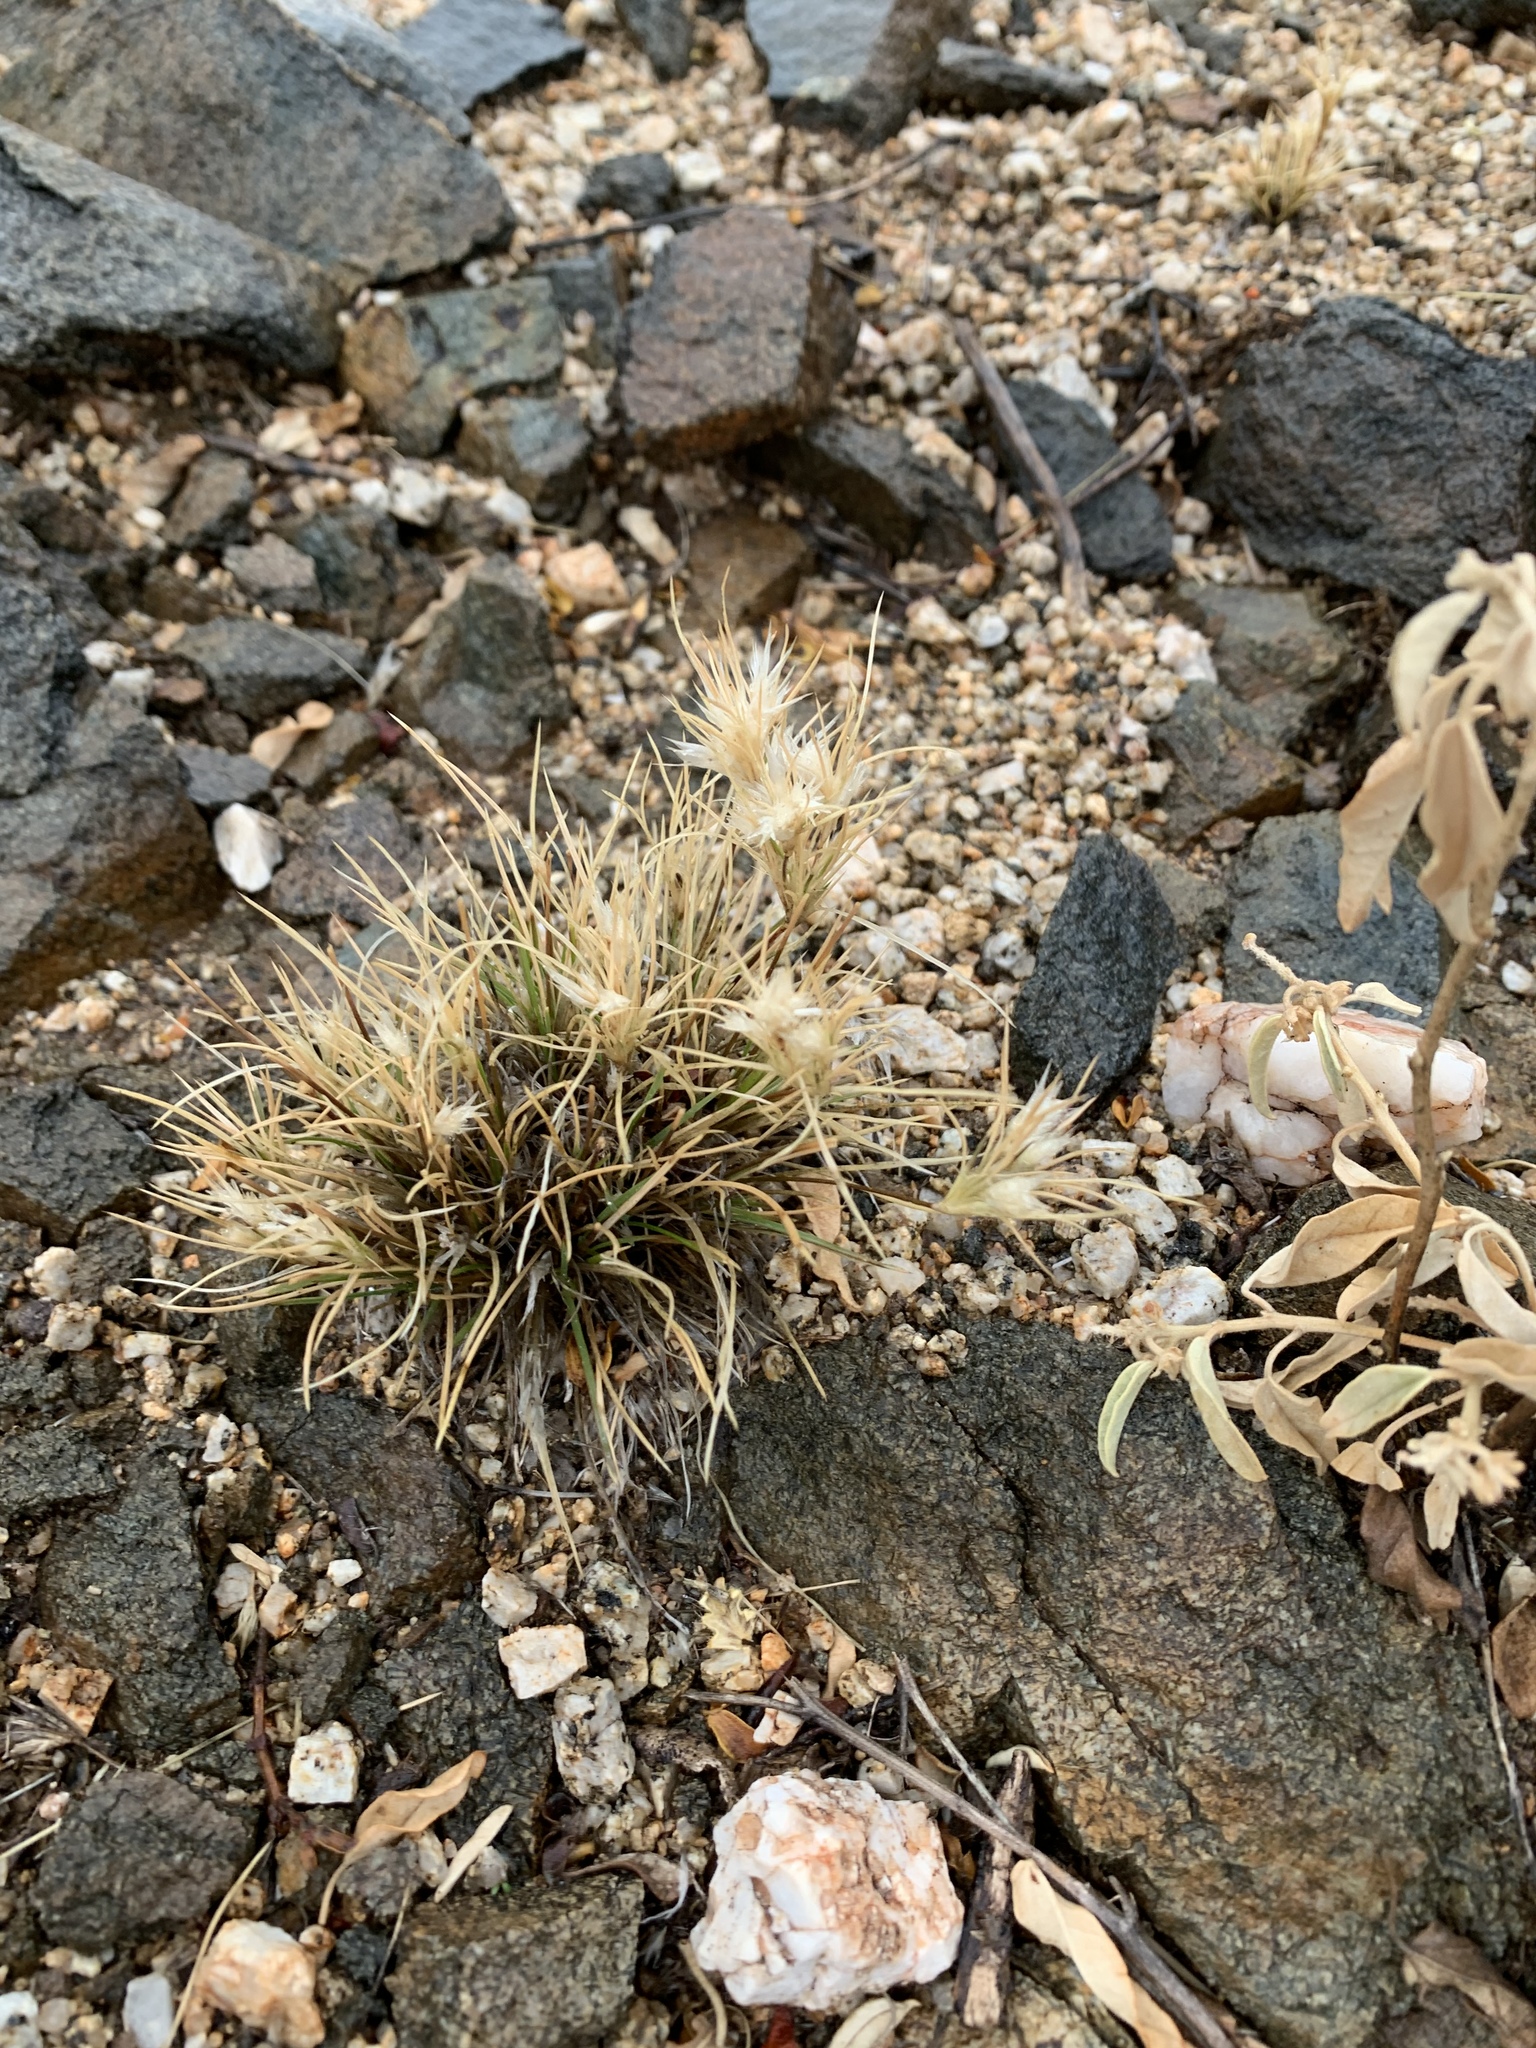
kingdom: Plantae
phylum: Tracheophyta
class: Liliopsida
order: Poales
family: Poaceae
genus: Dasyochloa
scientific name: Dasyochloa pulchella
